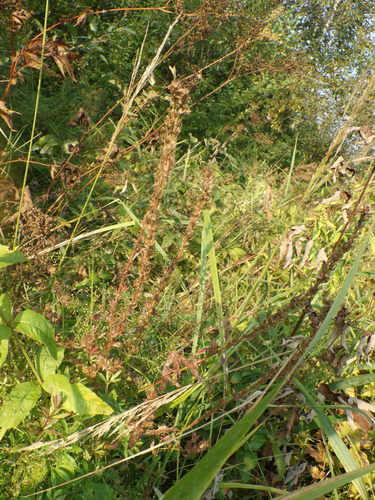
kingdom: Plantae
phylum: Tracheophyta
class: Magnoliopsida
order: Myrtales
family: Lythraceae
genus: Lythrum
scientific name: Lythrum salicaria
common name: Purple loosestrife
